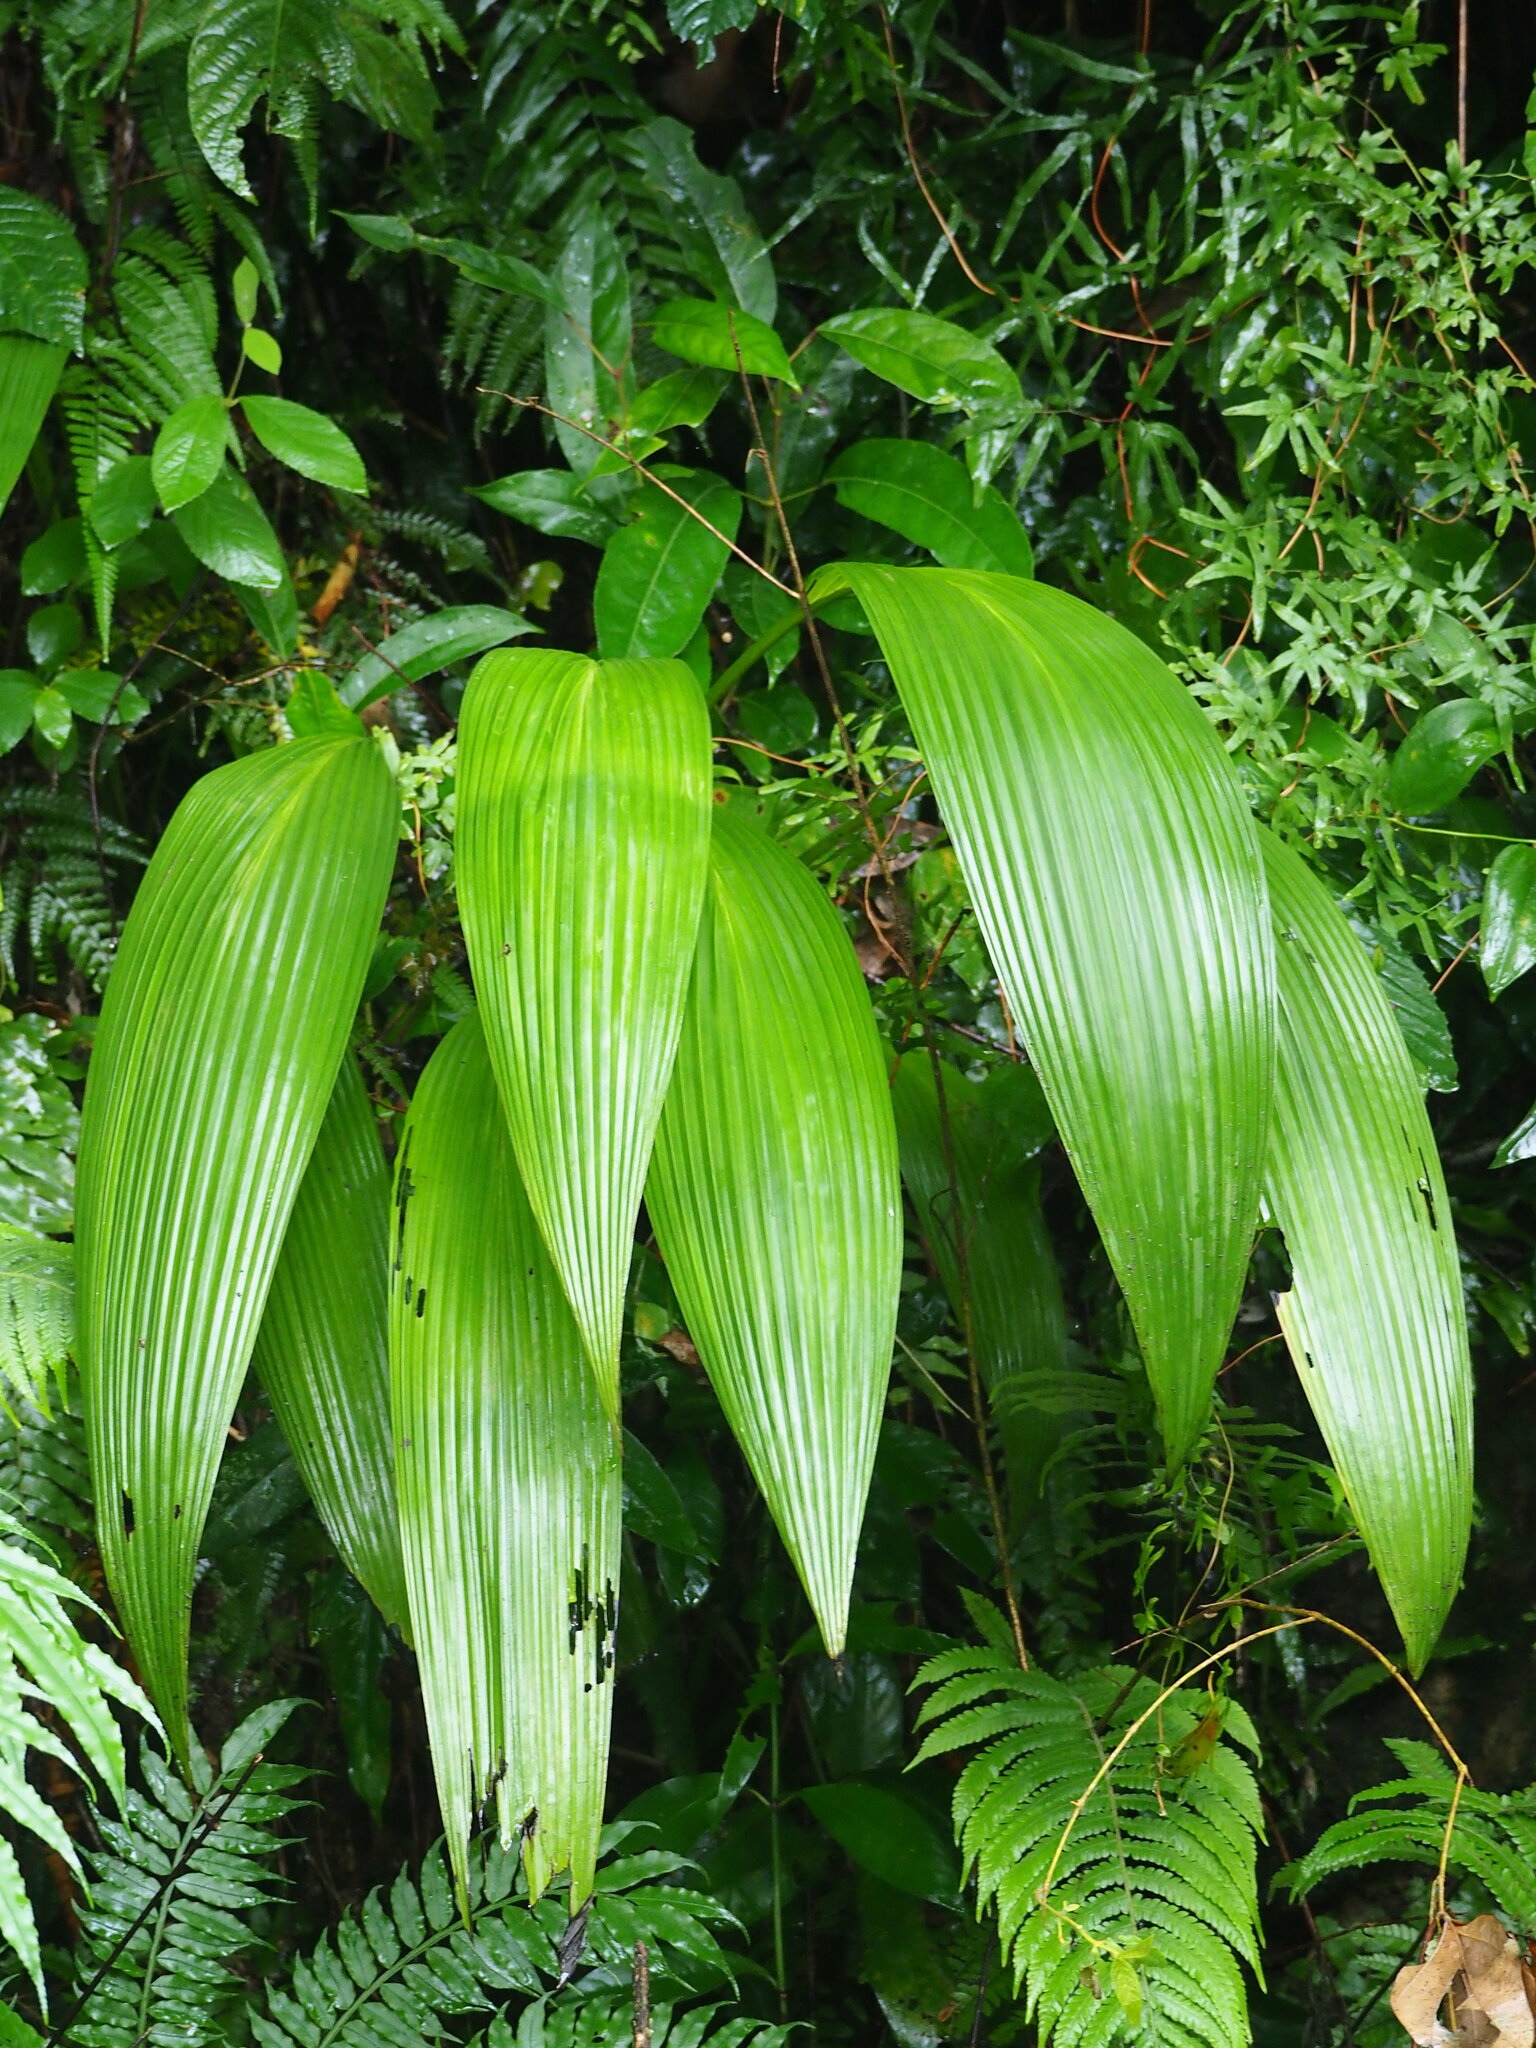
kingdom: Plantae
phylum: Tracheophyta
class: Liliopsida
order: Asparagales
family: Hypoxidaceae
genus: Curculigo
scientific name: Curculigo capitulata
